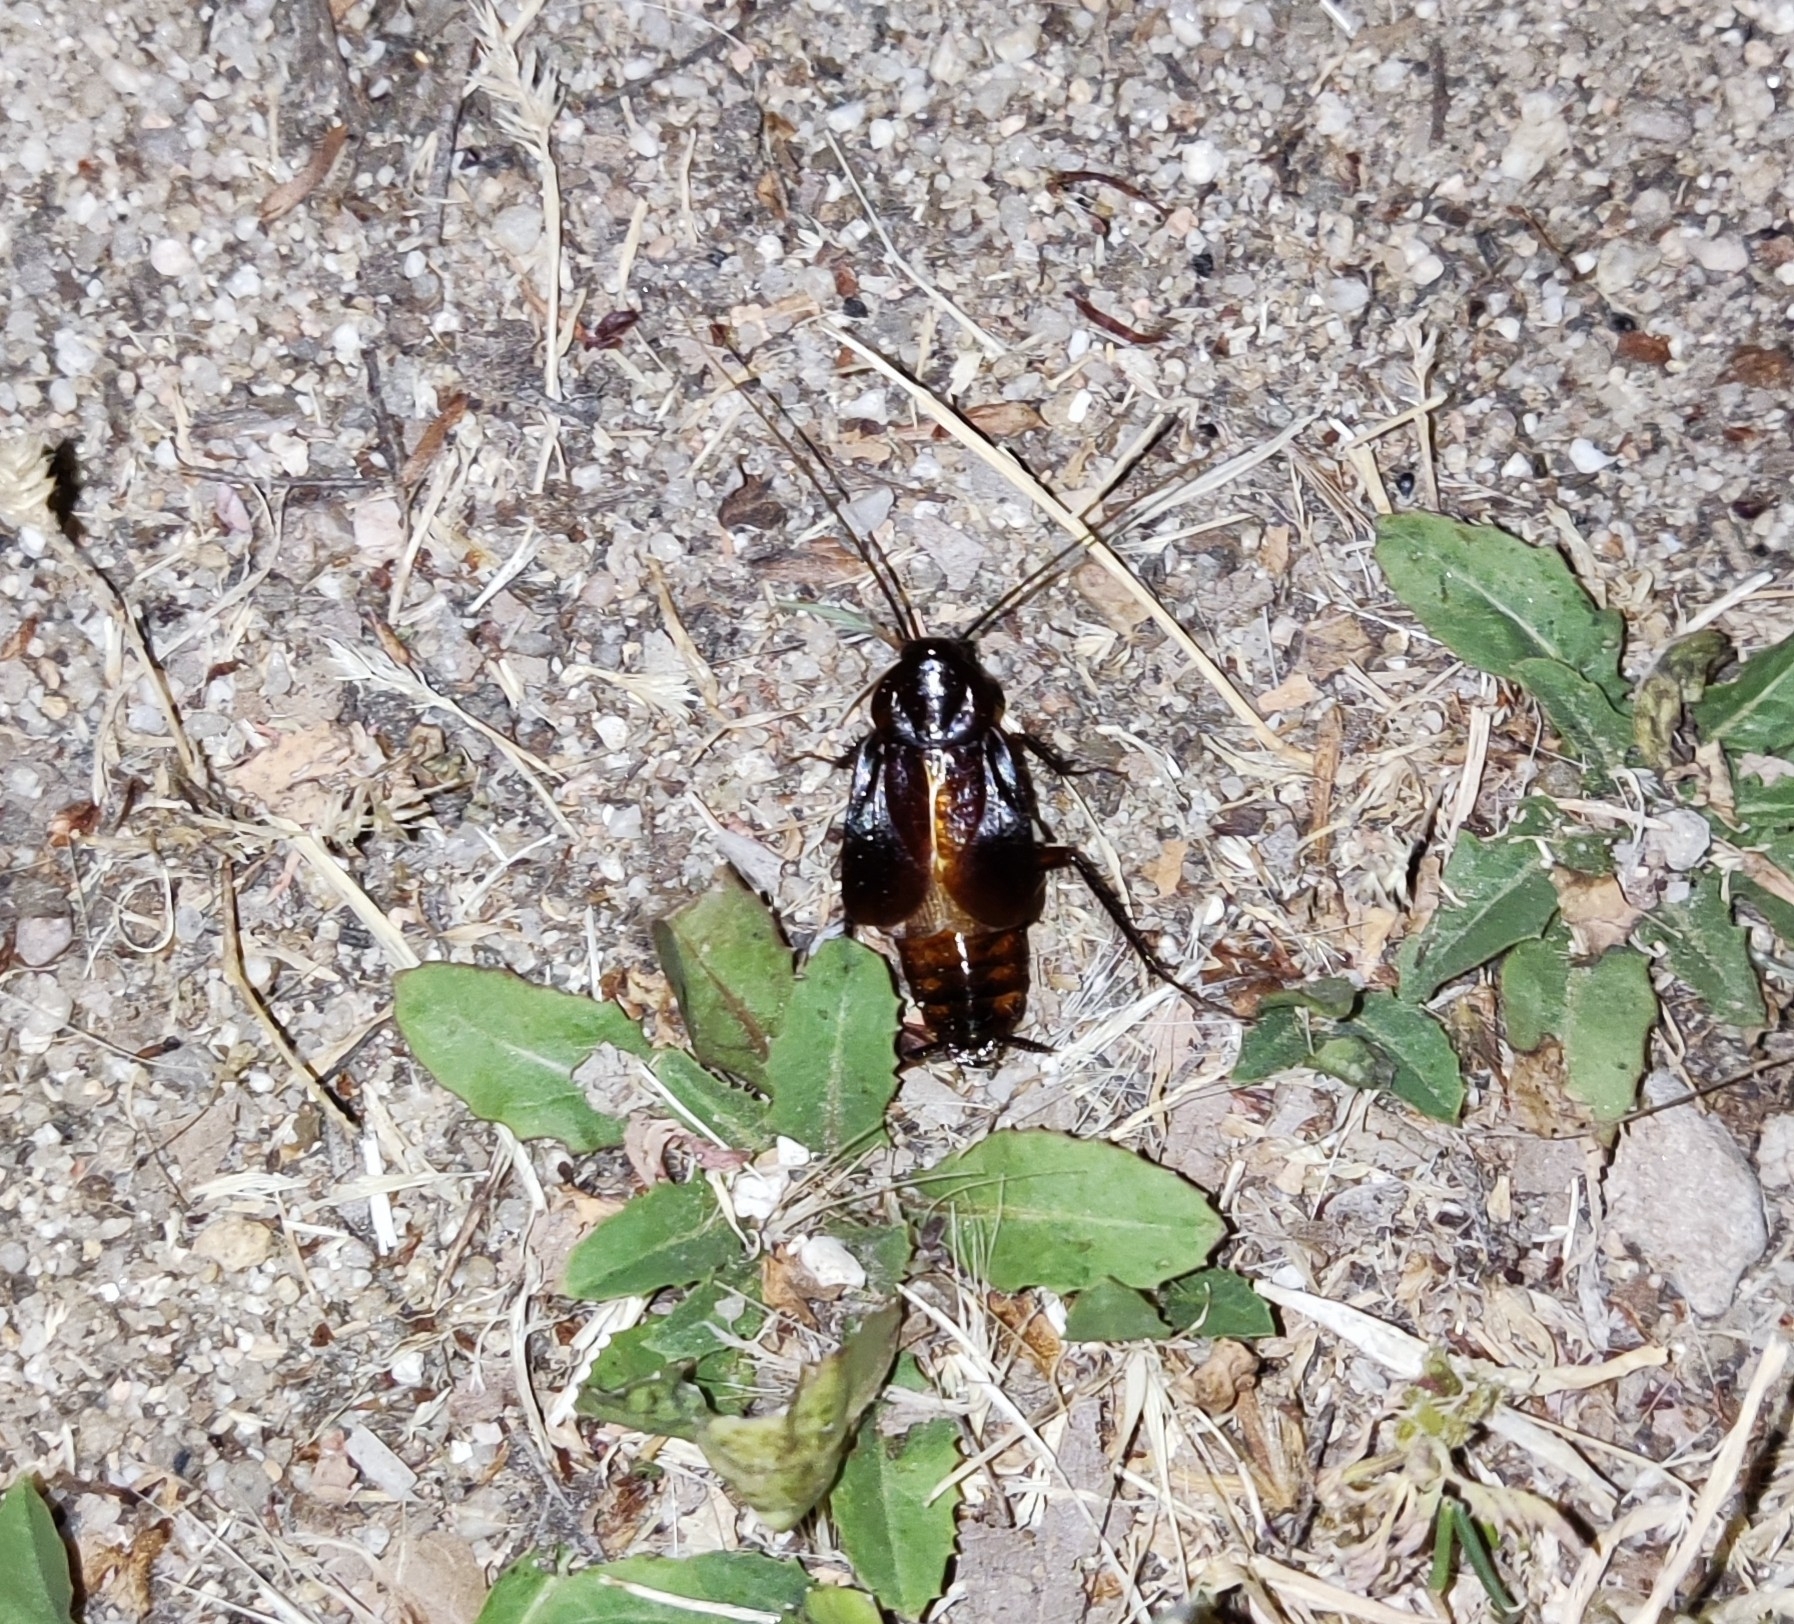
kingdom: Animalia
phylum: Arthropoda
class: Insecta
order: Blattodea
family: Blattidae
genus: Blatta
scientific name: Blatta orientalis
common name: Oriental cockroach
